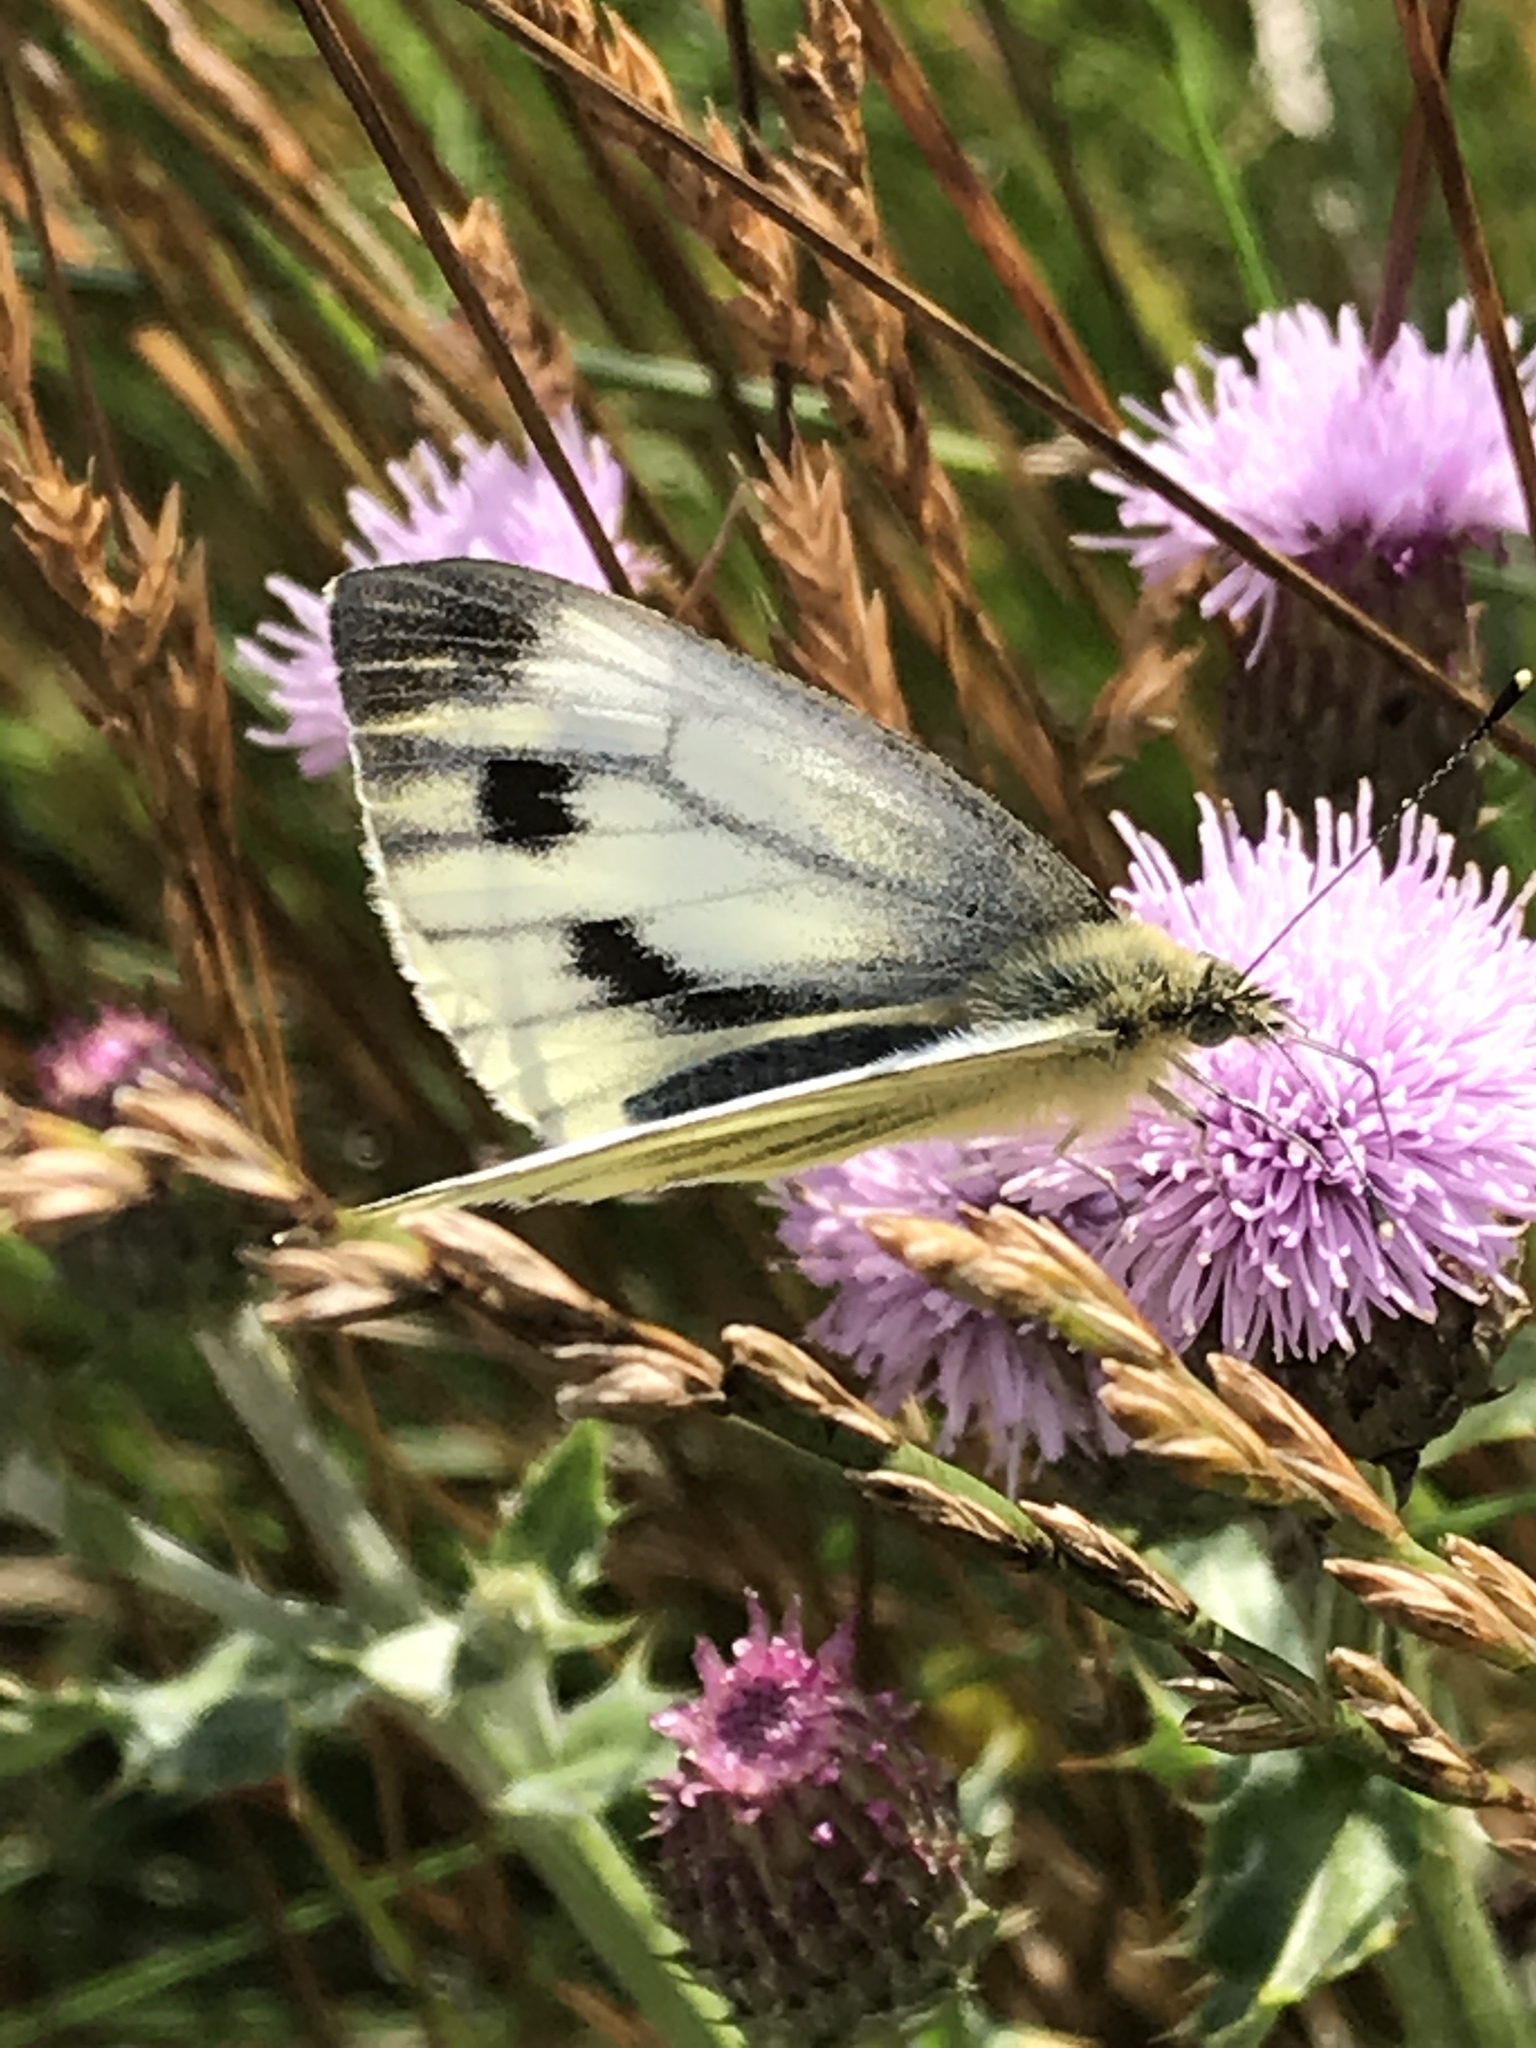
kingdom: Animalia
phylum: Arthropoda
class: Insecta
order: Lepidoptera
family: Pieridae
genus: Pieris
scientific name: Pieris napi
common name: Green-veined white
